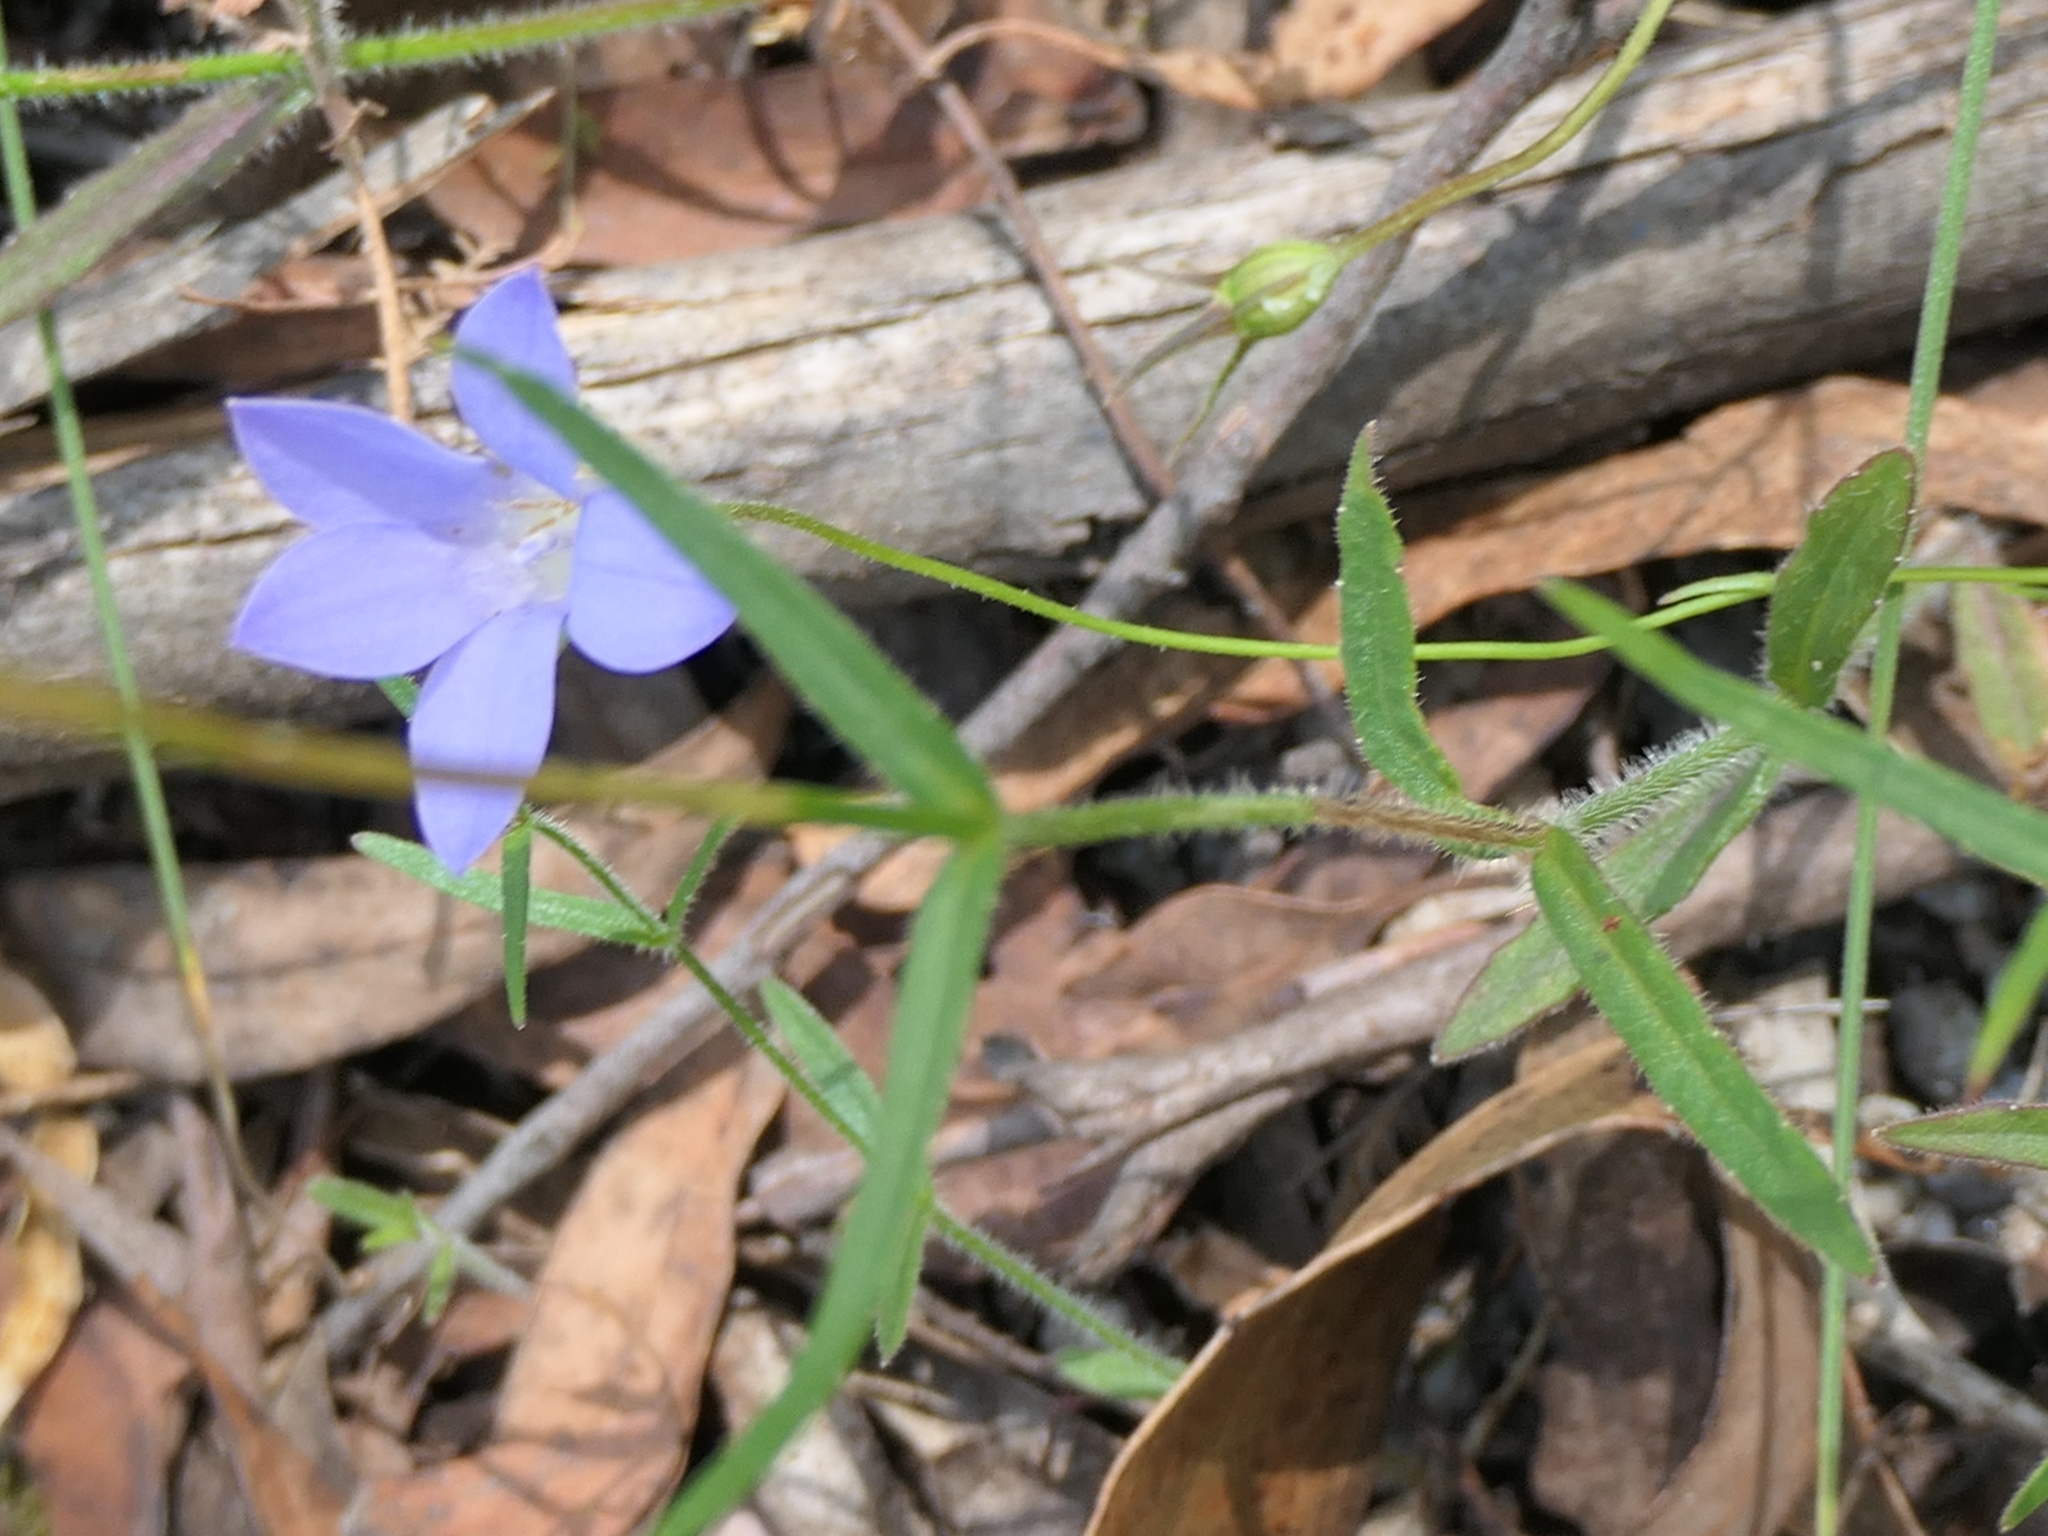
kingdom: Plantae
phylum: Tracheophyta
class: Magnoliopsida
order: Asterales
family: Campanulaceae
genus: Wahlenbergia
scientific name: Wahlenbergia stricta
